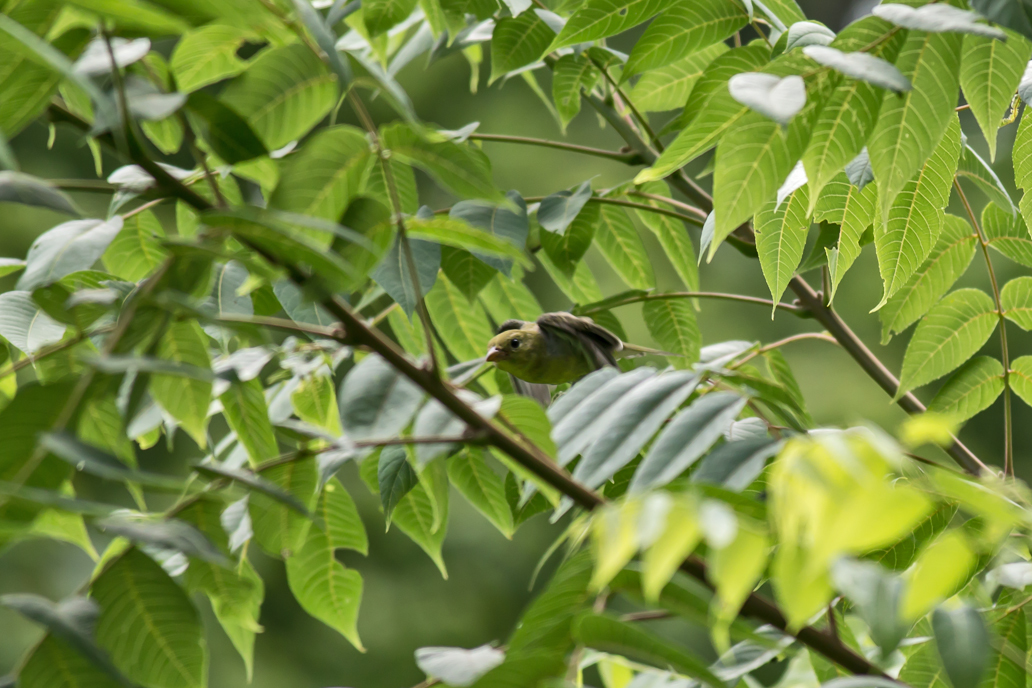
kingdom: Animalia
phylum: Chordata
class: Aves
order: Passeriformes
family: Cardinalidae
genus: Piranga
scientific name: Piranga olivacea
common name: Scarlet tanager
